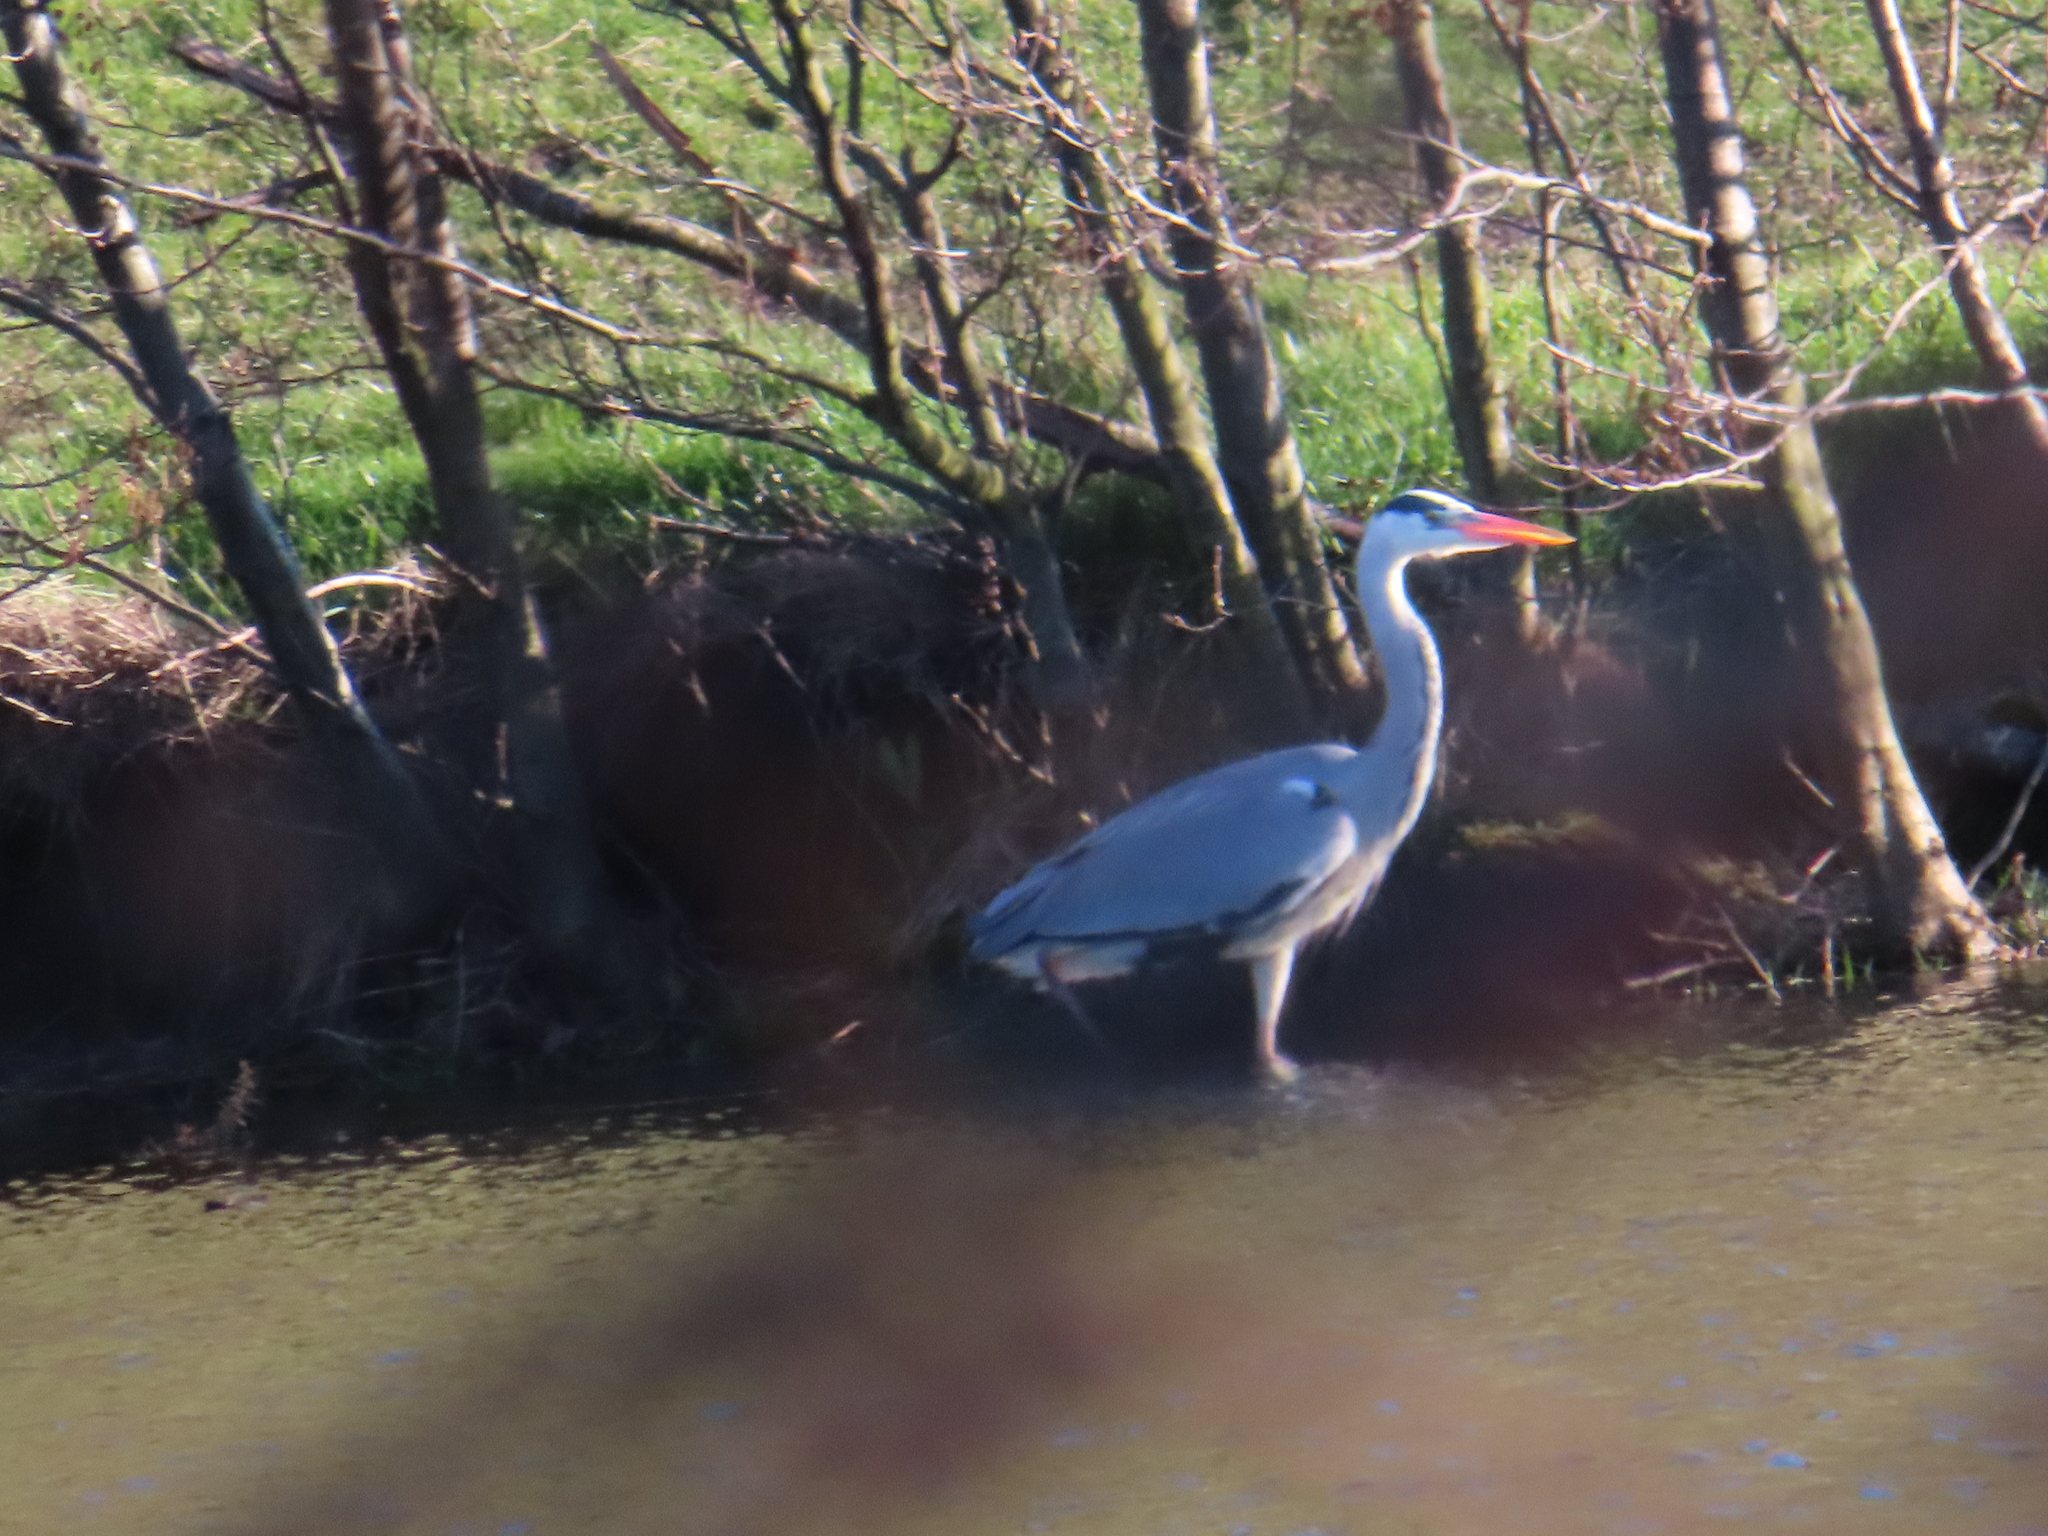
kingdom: Animalia
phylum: Chordata
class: Aves
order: Pelecaniformes
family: Ardeidae
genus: Ardea
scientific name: Ardea cinerea
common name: Grey heron
